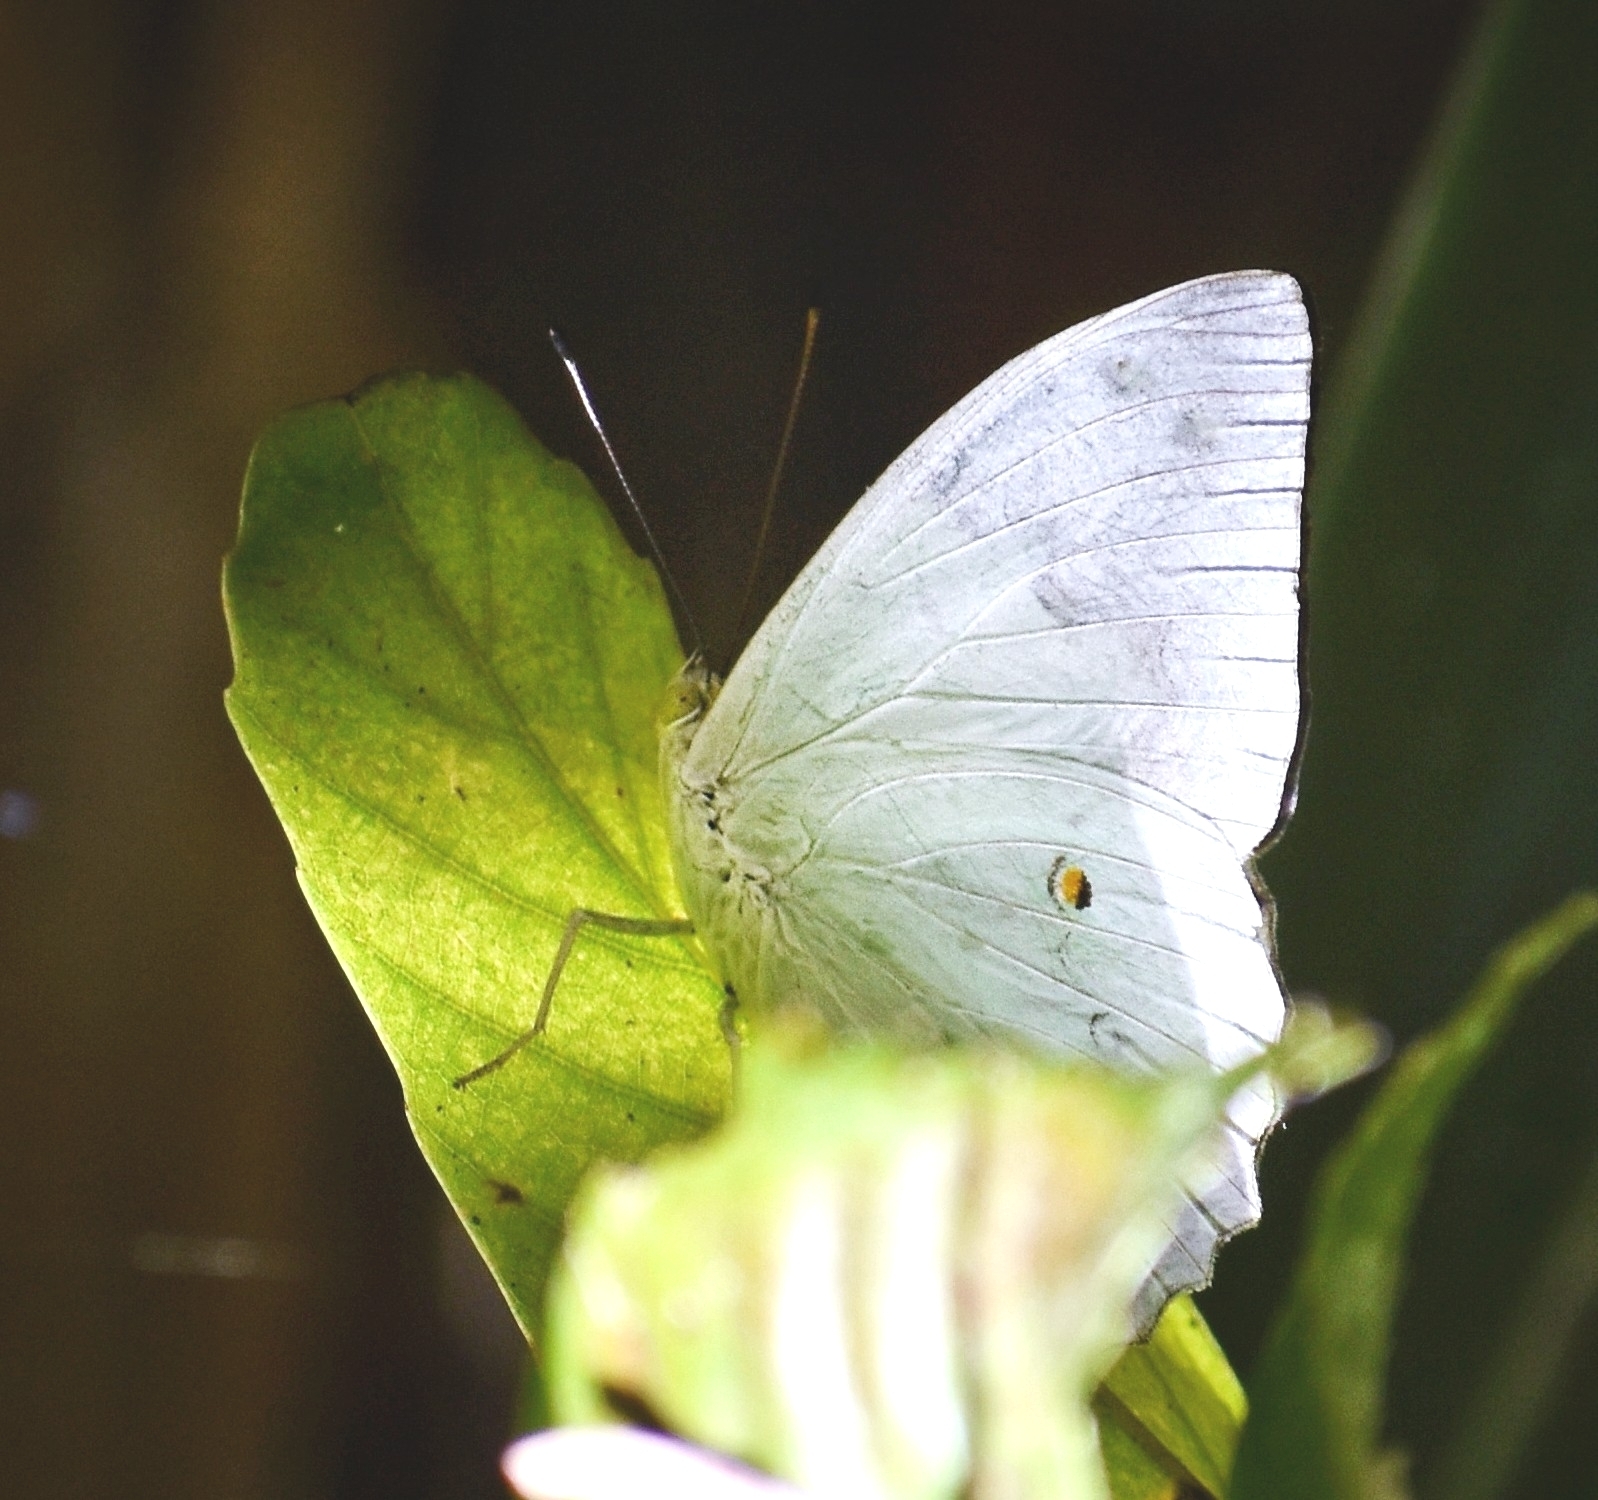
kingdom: Animalia
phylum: Arthropoda
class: Insecta
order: Lepidoptera
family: Nymphalidae
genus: Helcyra
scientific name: Helcyra superba
